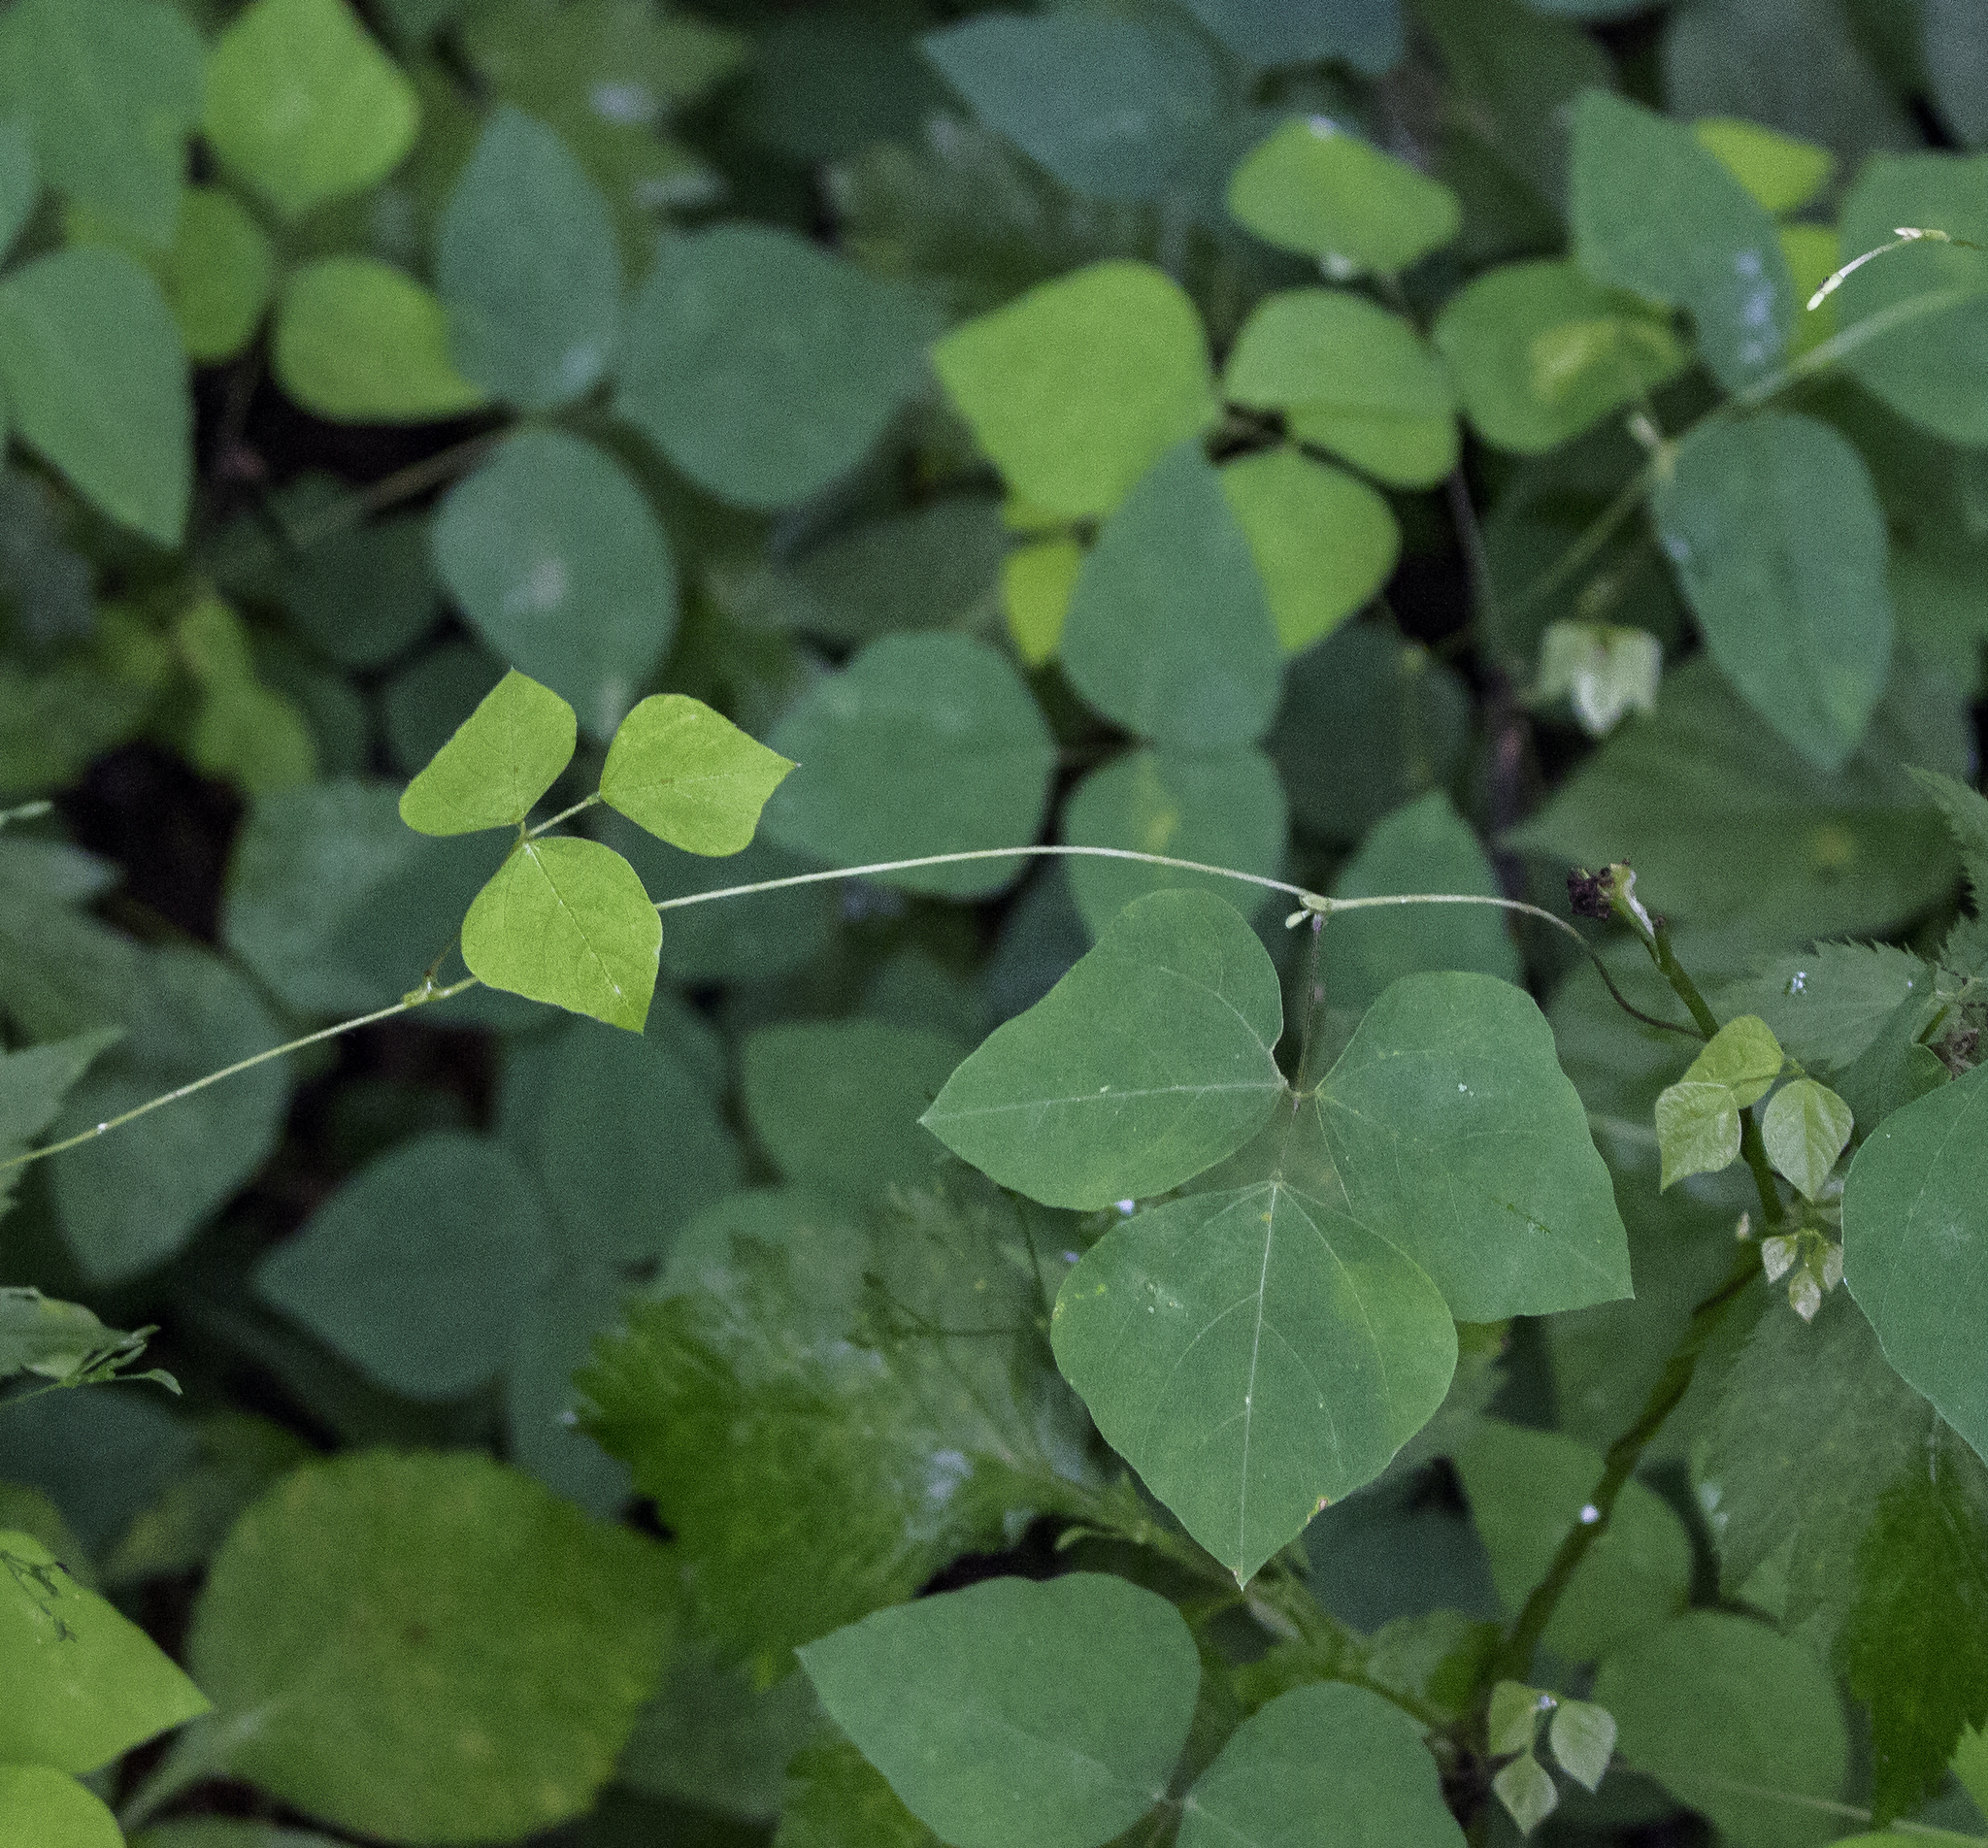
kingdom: Plantae
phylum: Tracheophyta
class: Magnoliopsida
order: Fabales
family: Fabaceae
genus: Amphicarpaea
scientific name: Amphicarpaea bracteata
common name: American hog peanut
